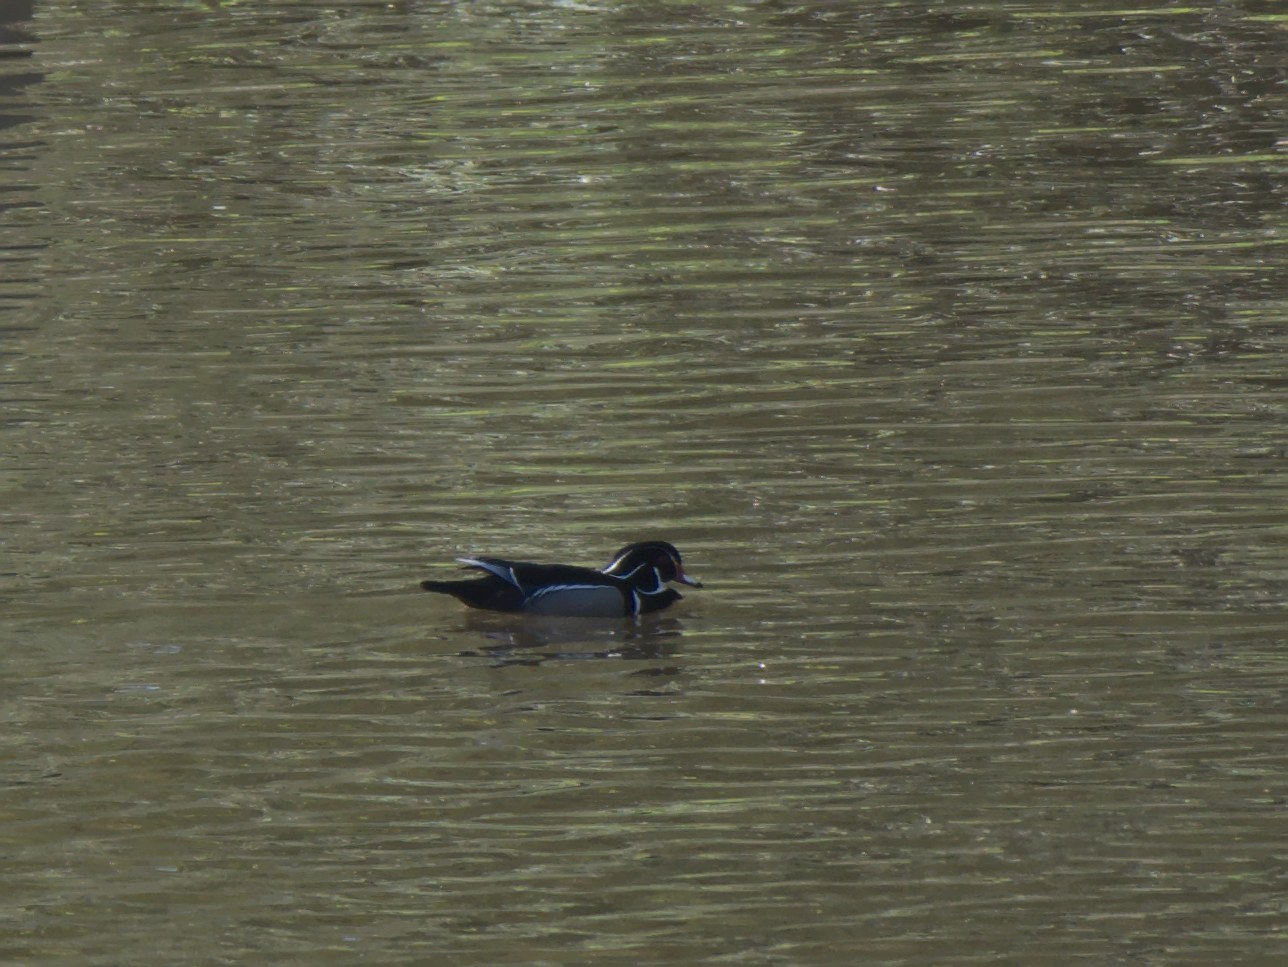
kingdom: Animalia
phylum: Chordata
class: Aves
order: Anseriformes
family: Anatidae
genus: Aix
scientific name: Aix sponsa
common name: Wood duck
